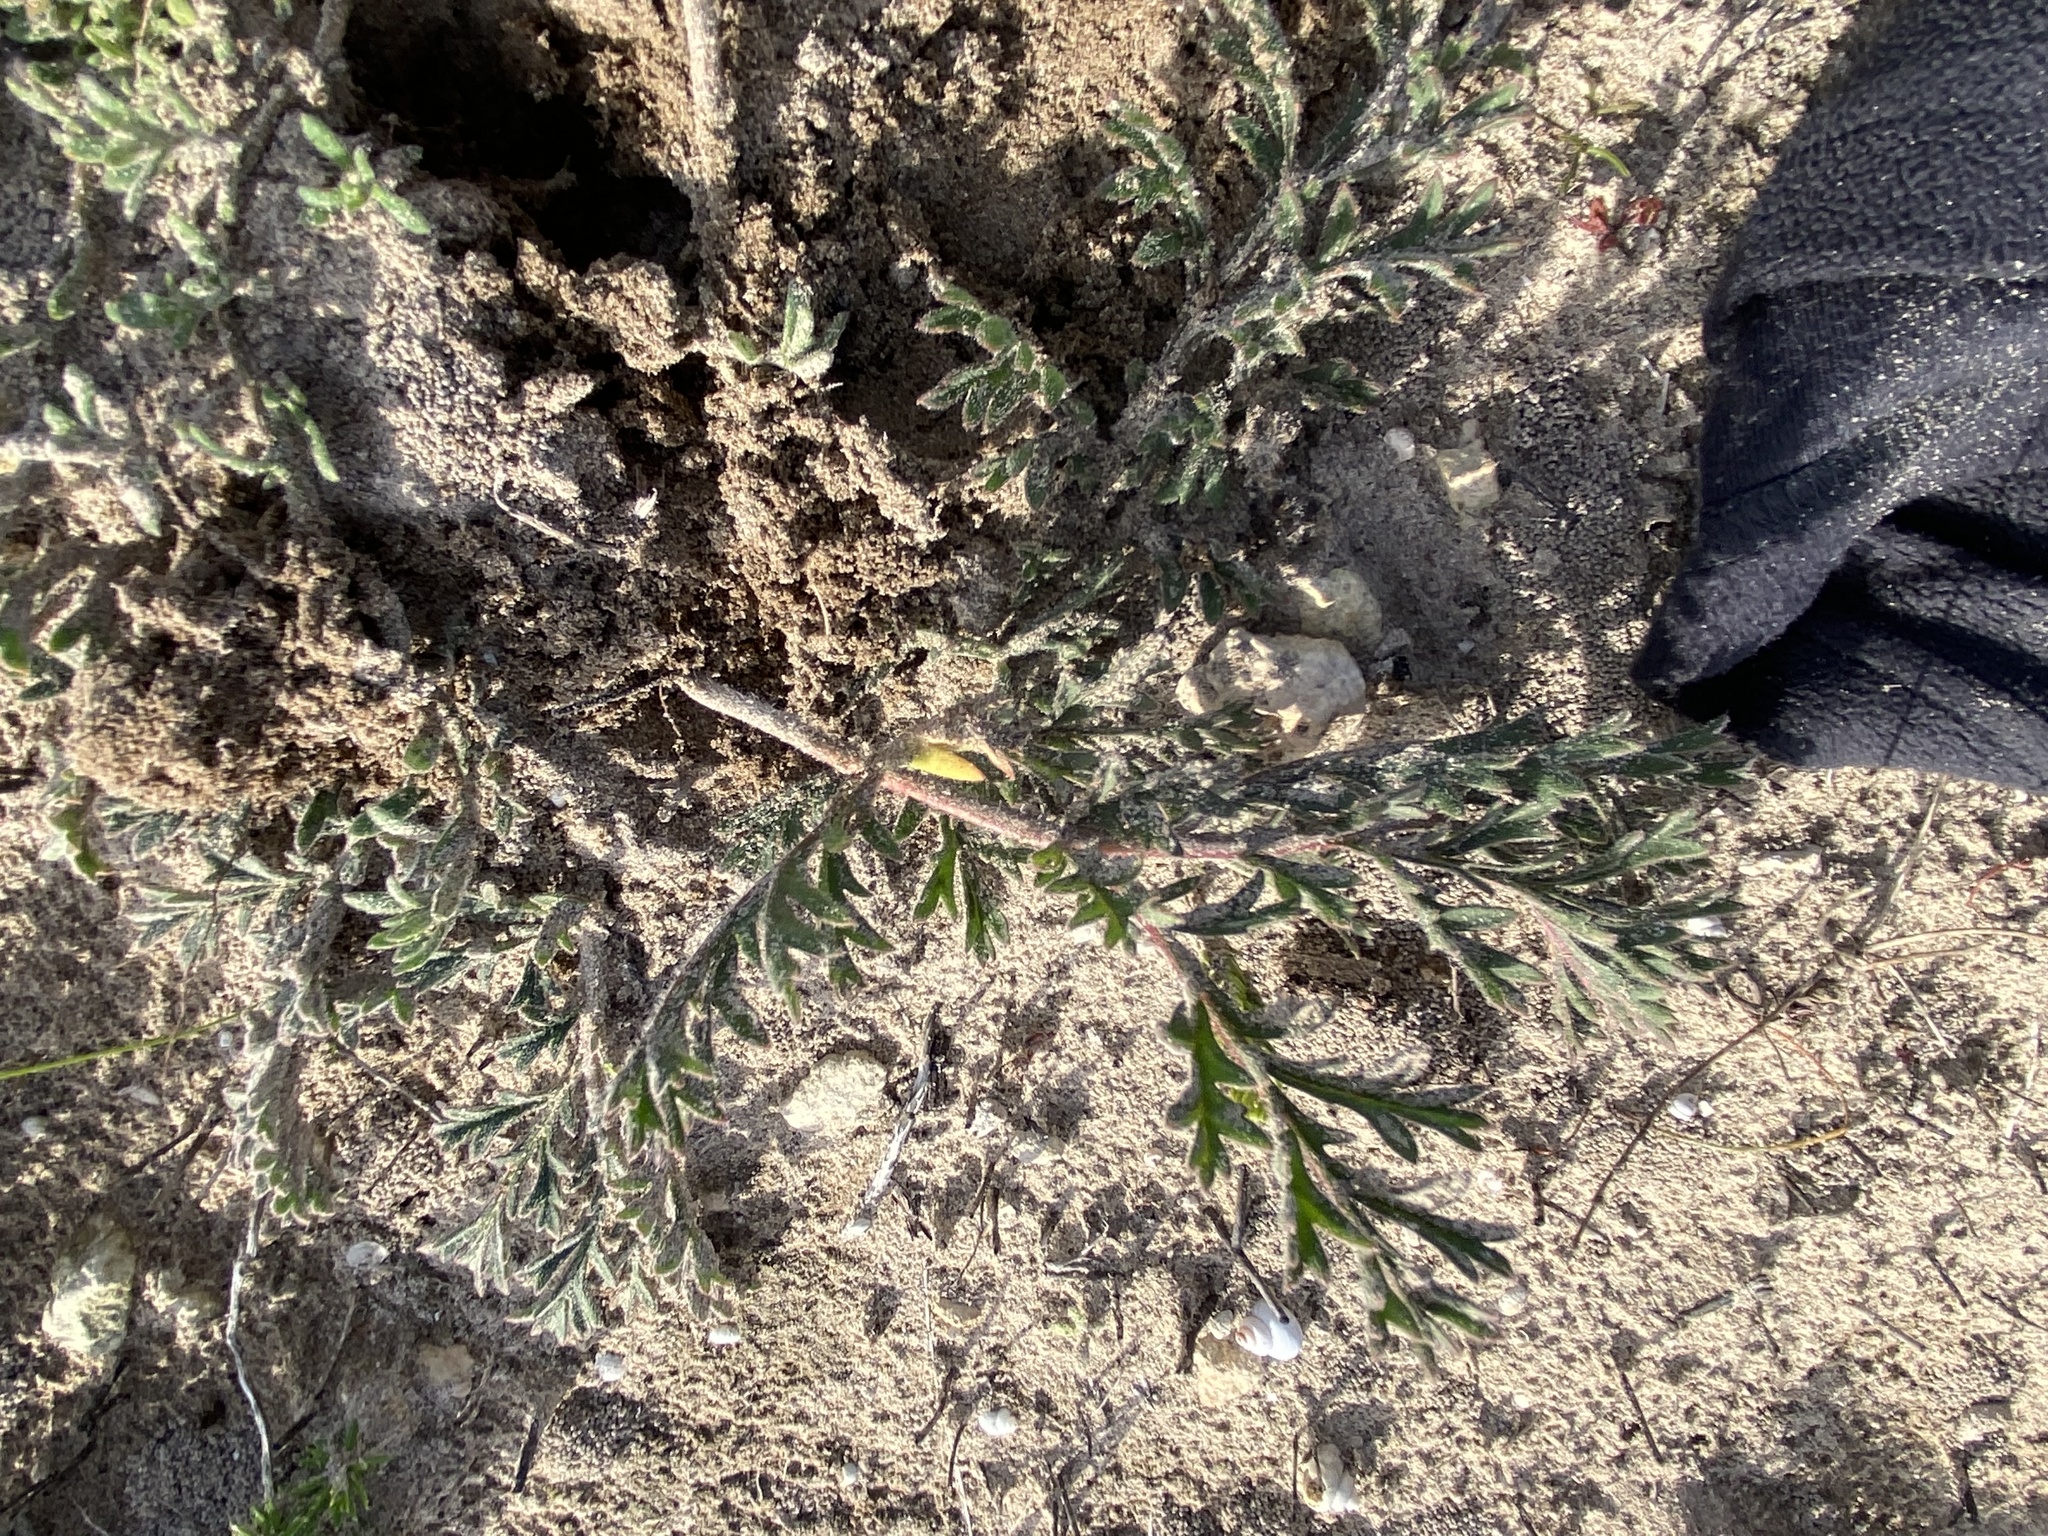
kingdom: Plantae
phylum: Tracheophyta
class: Magnoliopsida
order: Geraniales
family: Geraniaceae
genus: Pelargonium
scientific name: Pelargonium triste
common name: Night-scent pelargonium
